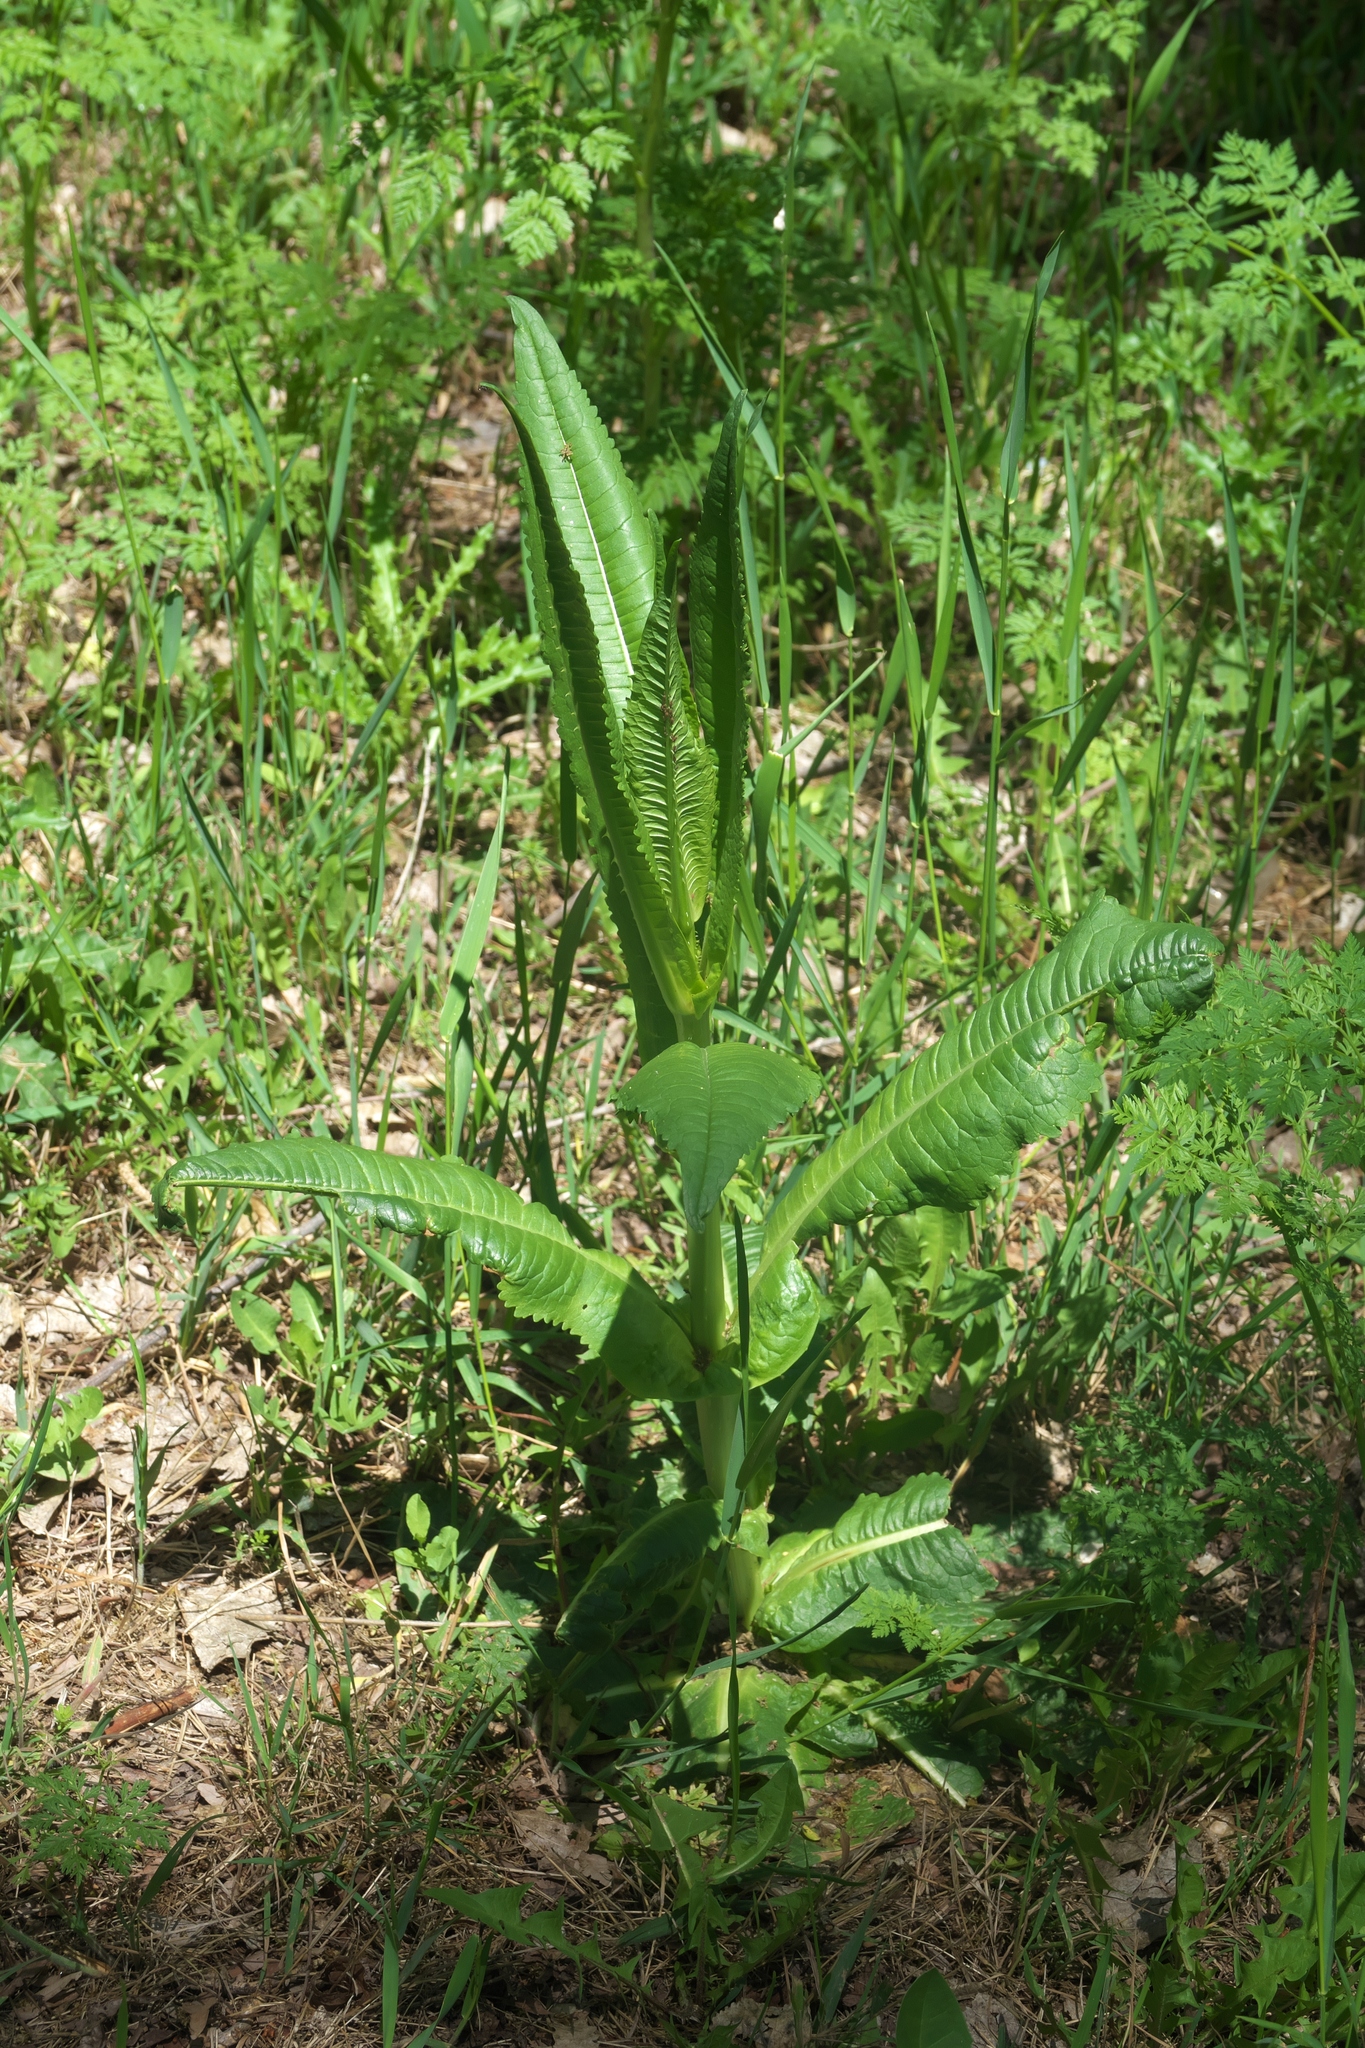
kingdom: Plantae
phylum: Tracheophyta
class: Magnoliopsida
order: Dipsacales
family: Caprifoliaceae
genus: Dipsacus
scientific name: Dipsacus fullonum
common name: Teasel
